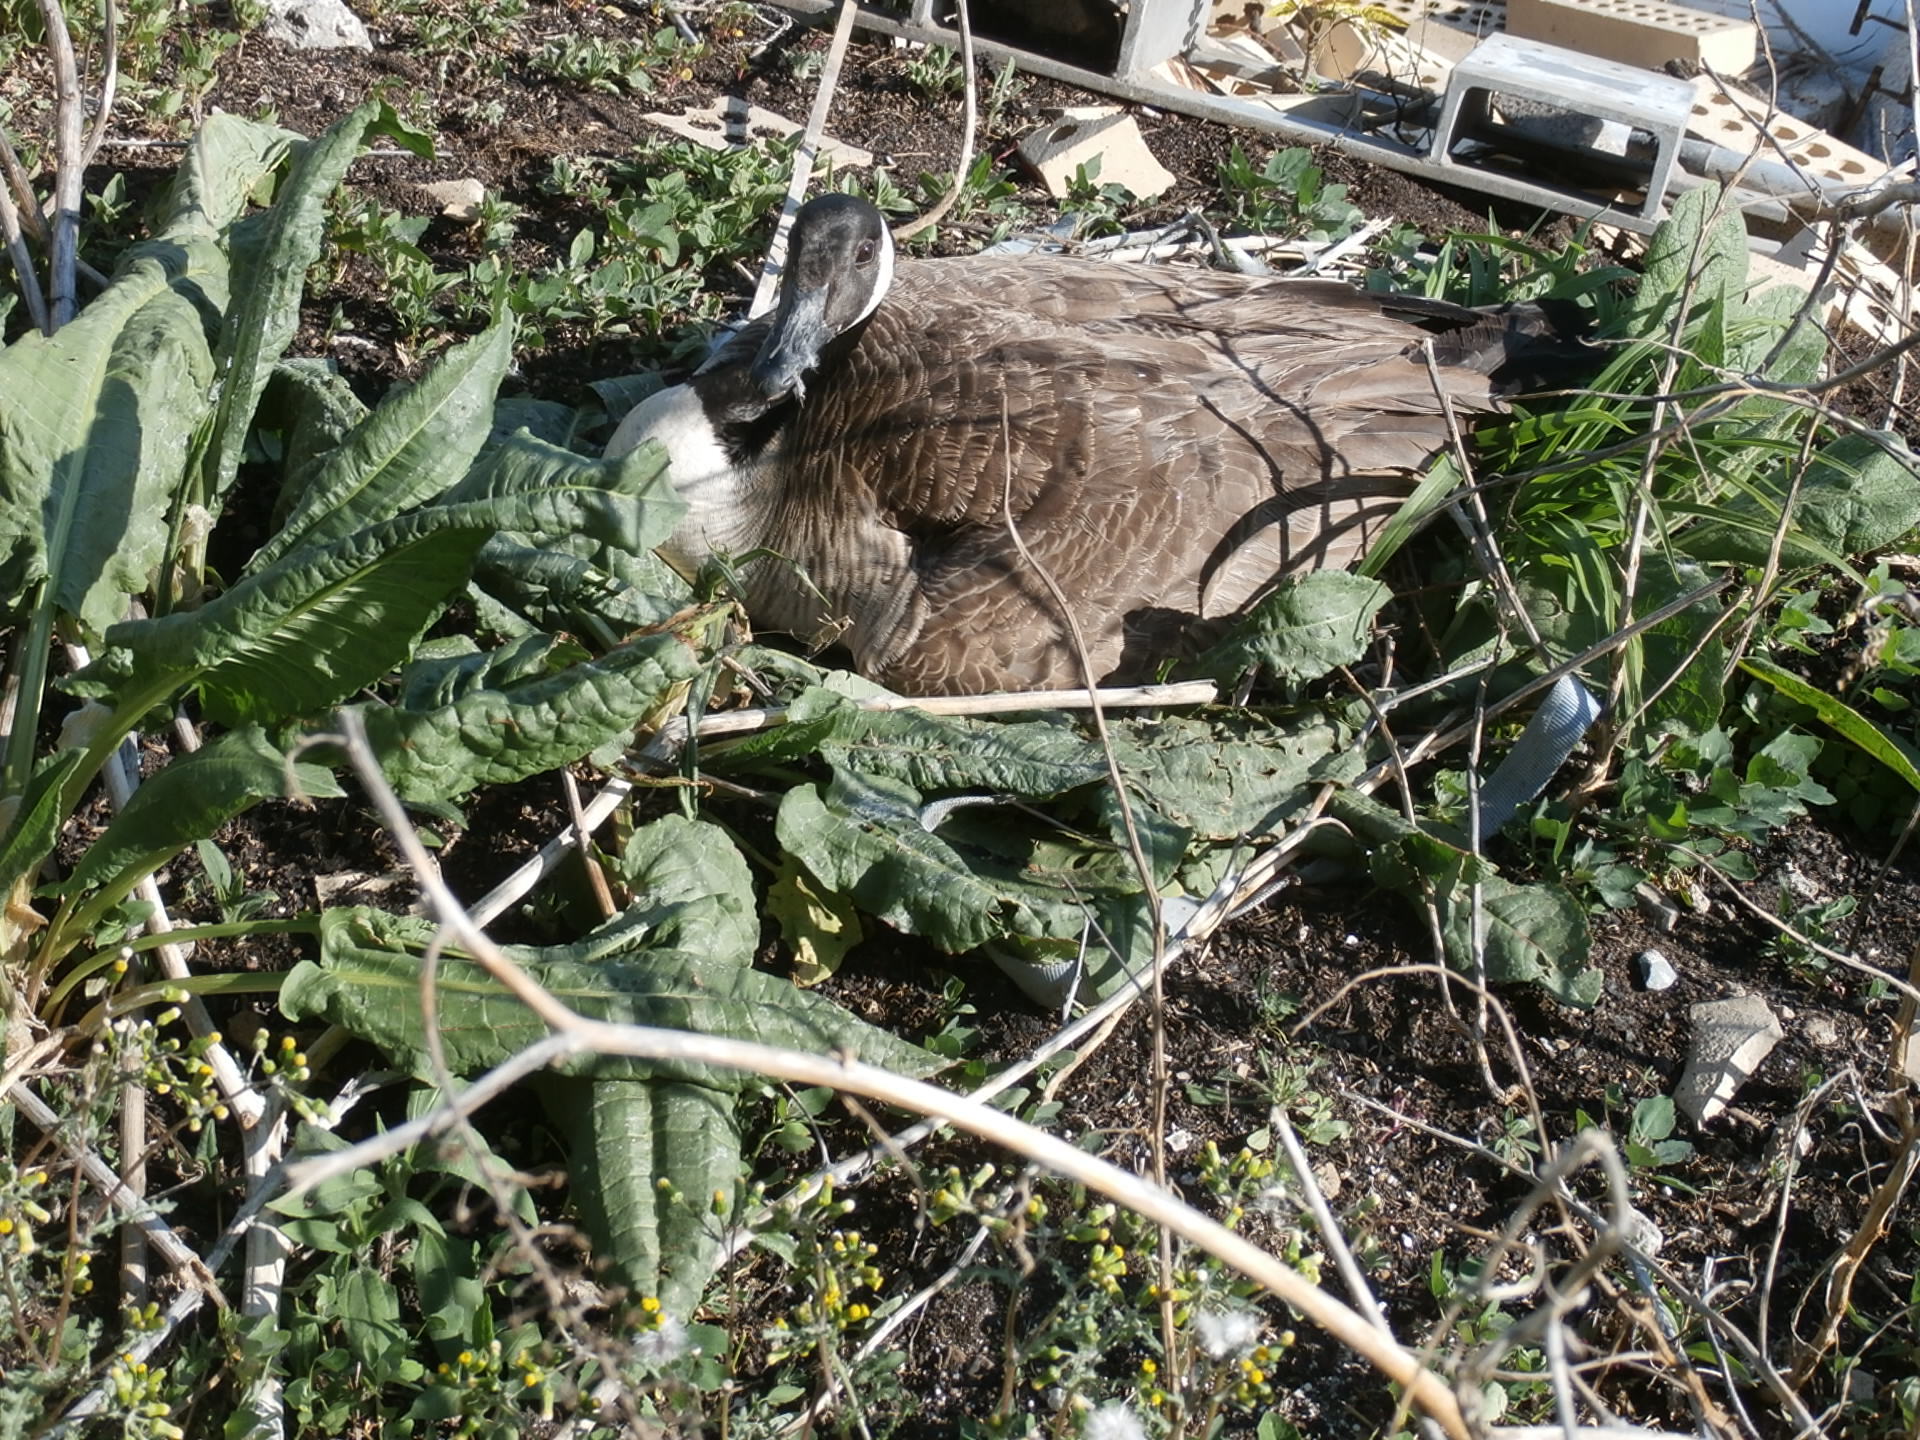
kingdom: Animalia
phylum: Chordata
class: Aves
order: Anseriformes
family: Anatidae
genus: Branta
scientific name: Branta canadensis
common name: Canada goose
